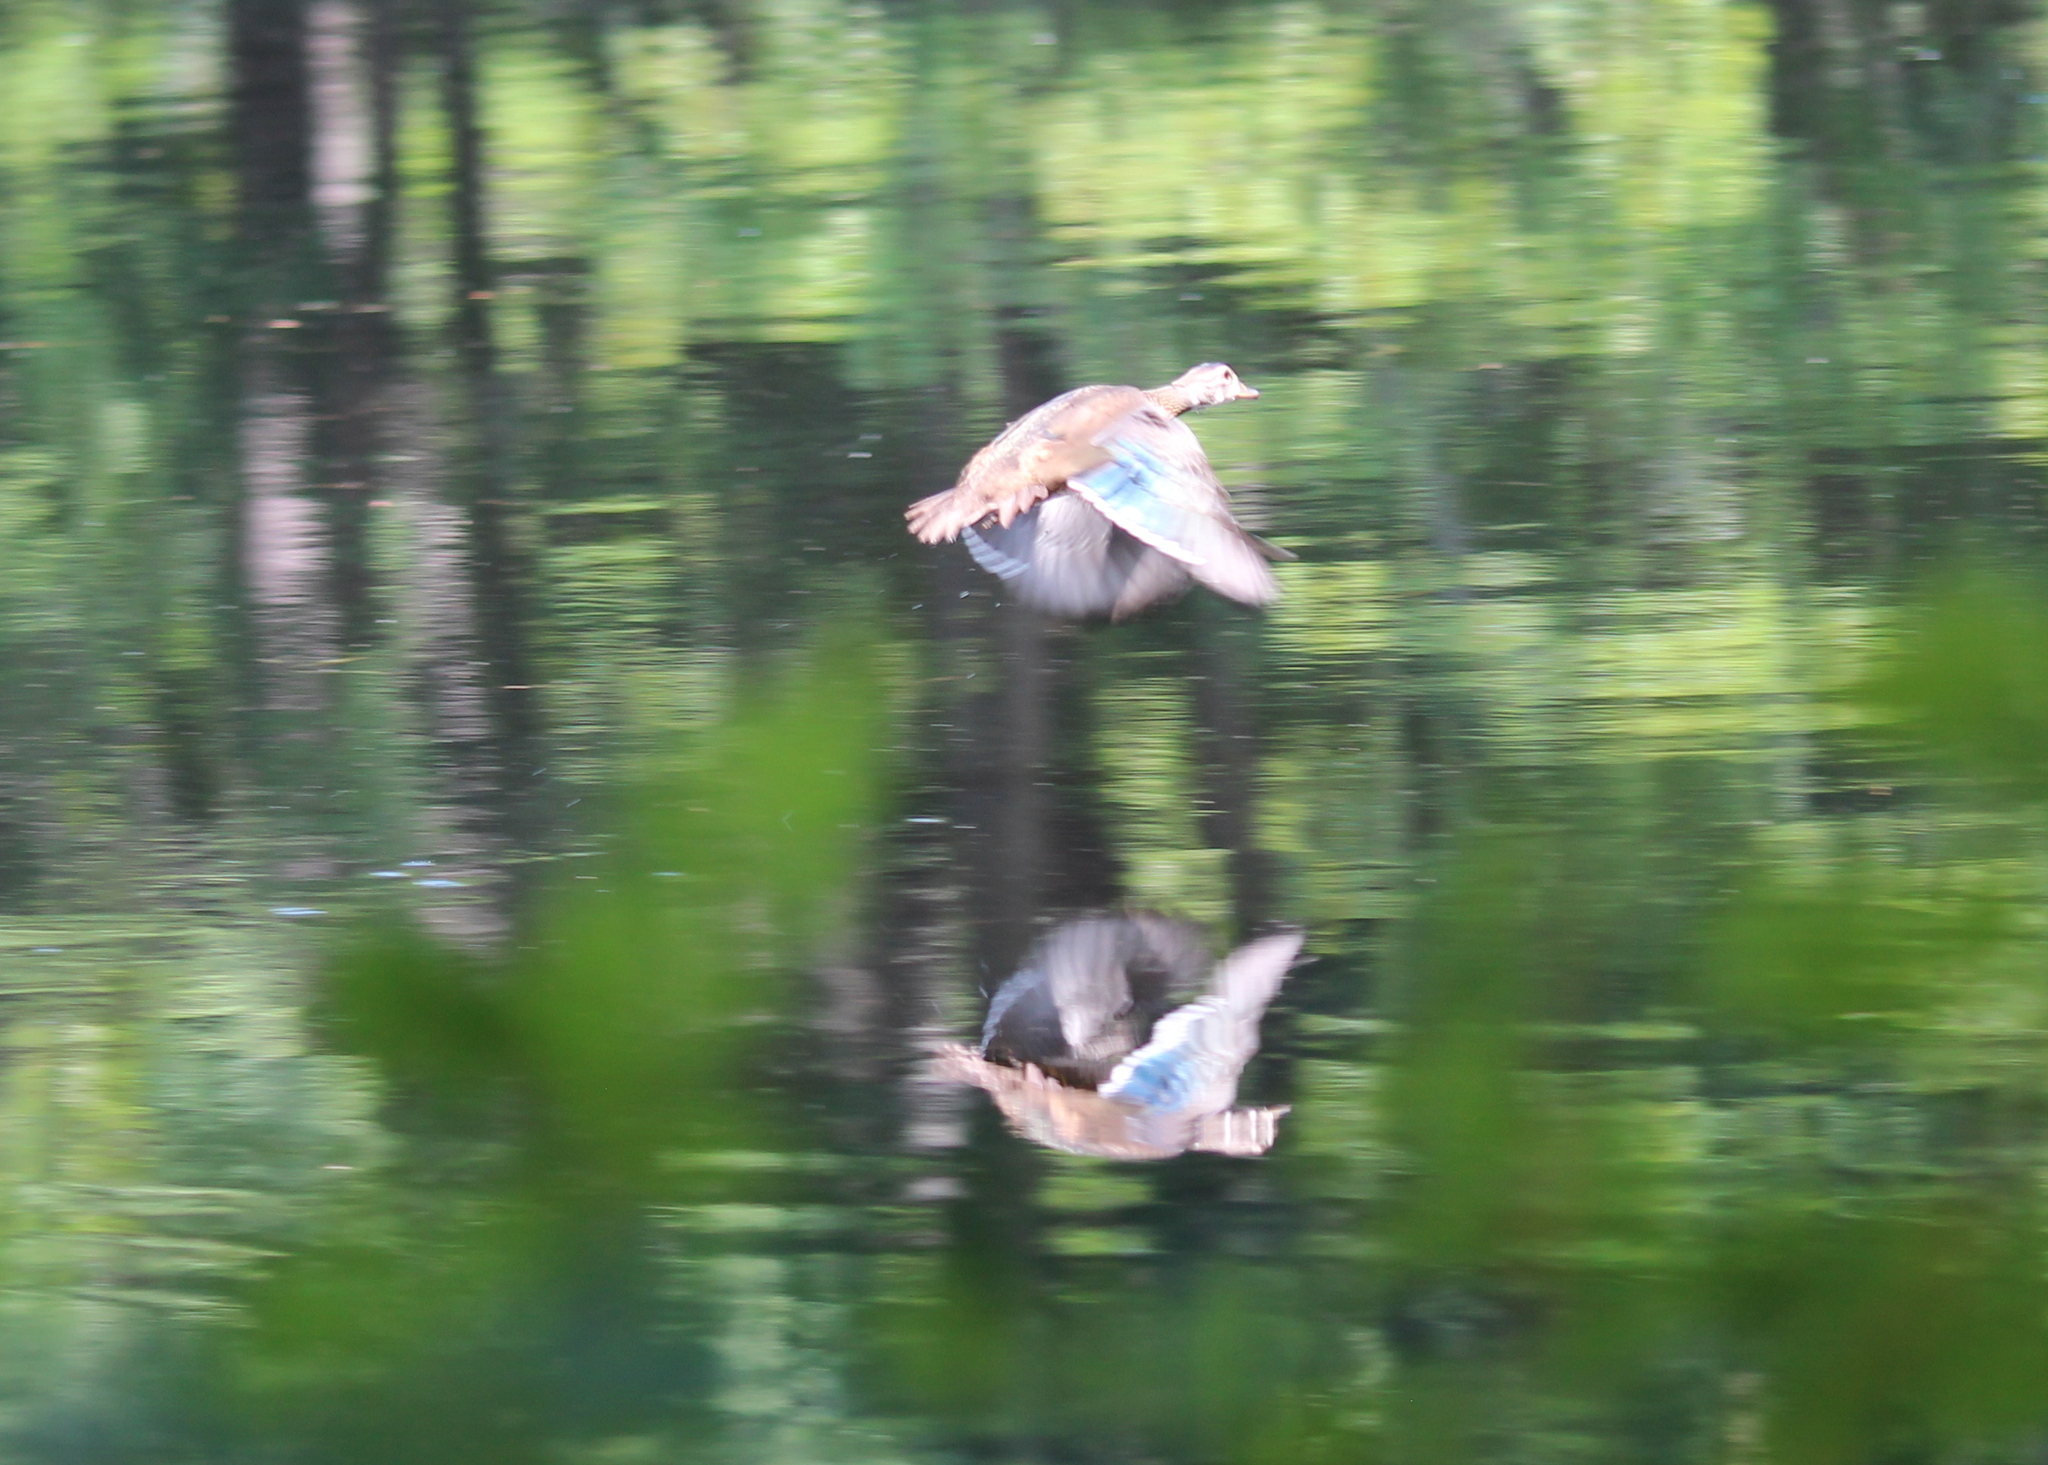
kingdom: Animalia
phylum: Chordata
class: Aves
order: Anseriformes
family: Anatidae
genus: Aix
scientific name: Aix sponsa
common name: Wood duck
